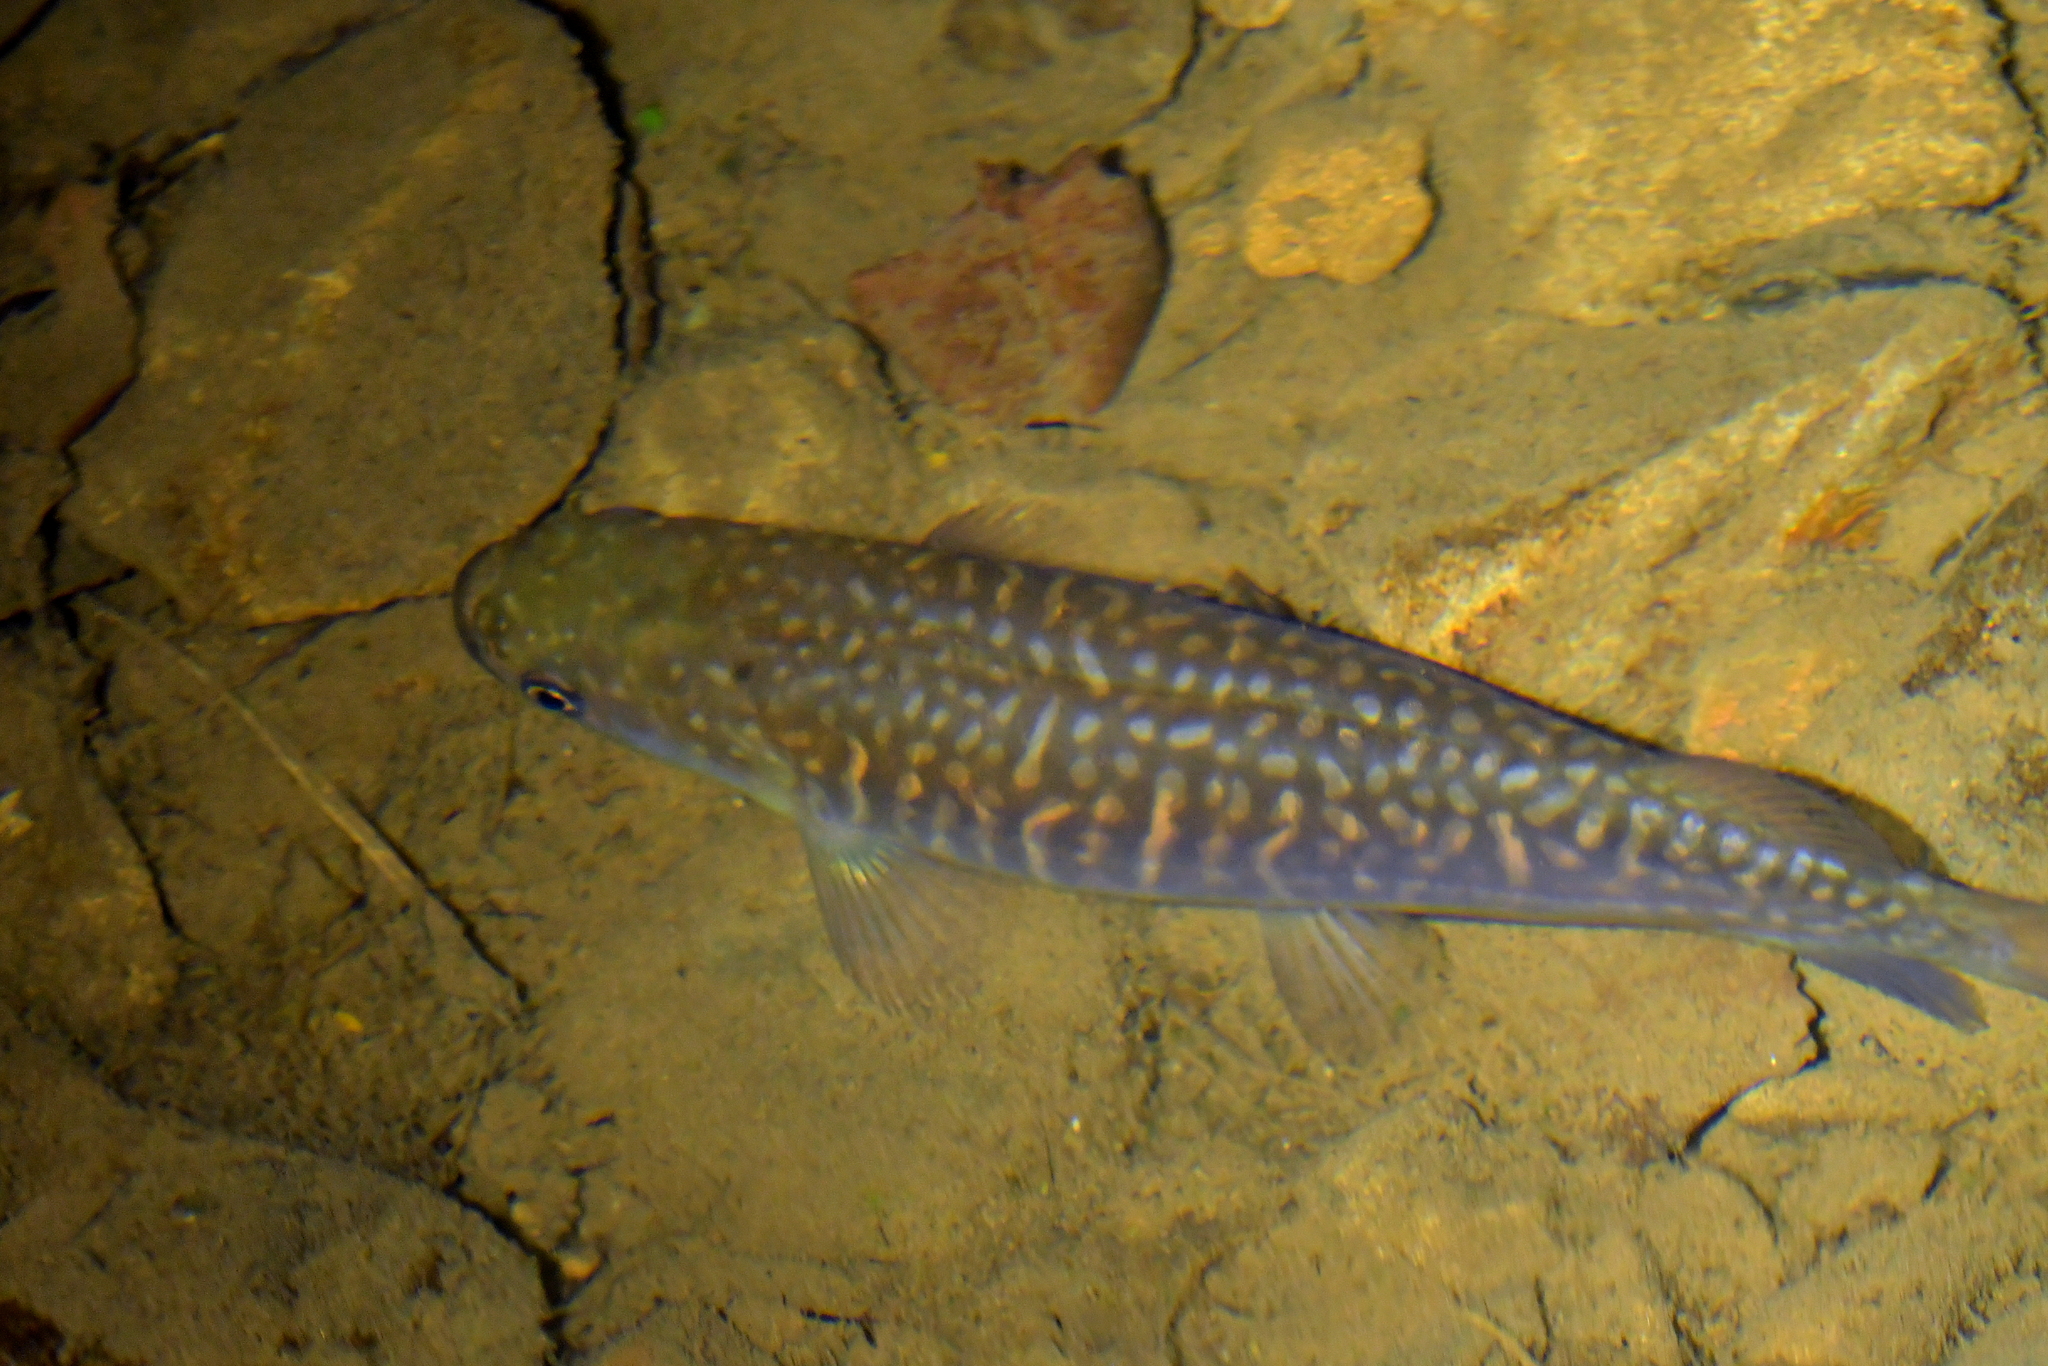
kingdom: Animalia
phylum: Chordata
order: Osmeriformes
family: Galaxiidae
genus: Galaxias
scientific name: Galaxias argenteus
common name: Giant kokopu
